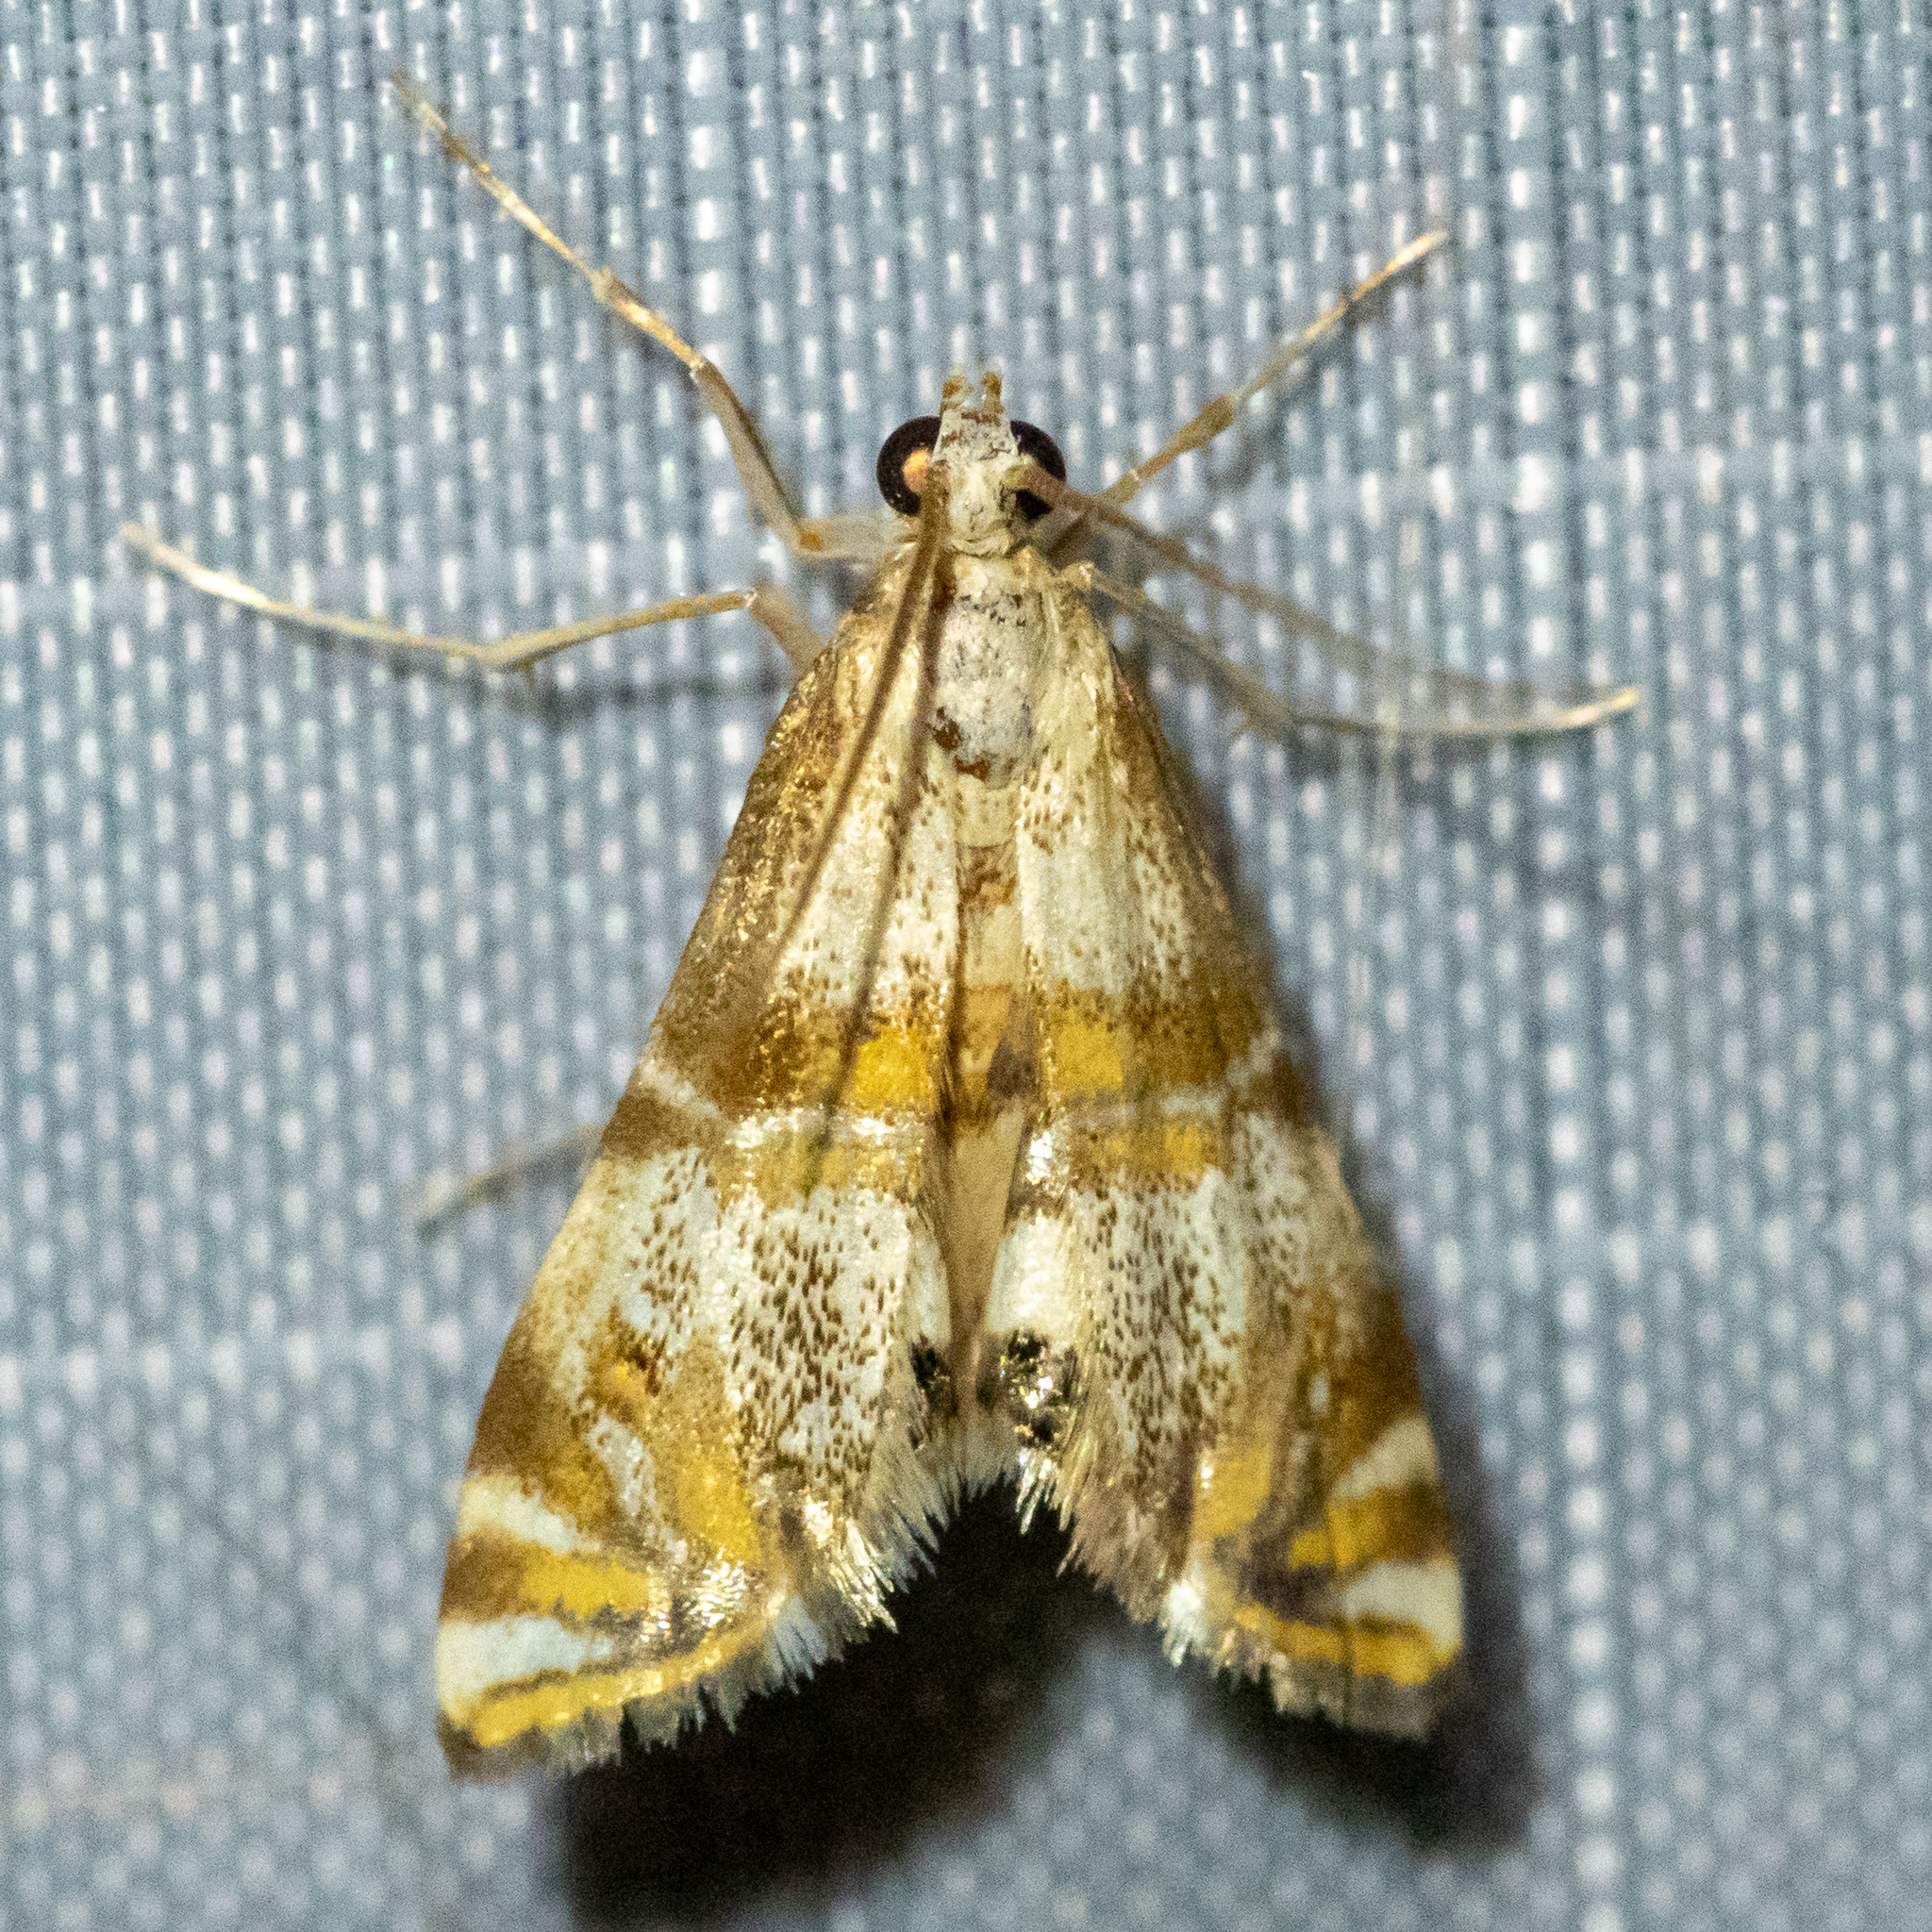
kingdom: Animalia
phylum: Arthropoda
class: Insecta
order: Lepidoptera
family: Crambidae
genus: Petrophila
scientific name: Petrophila bifascialis
